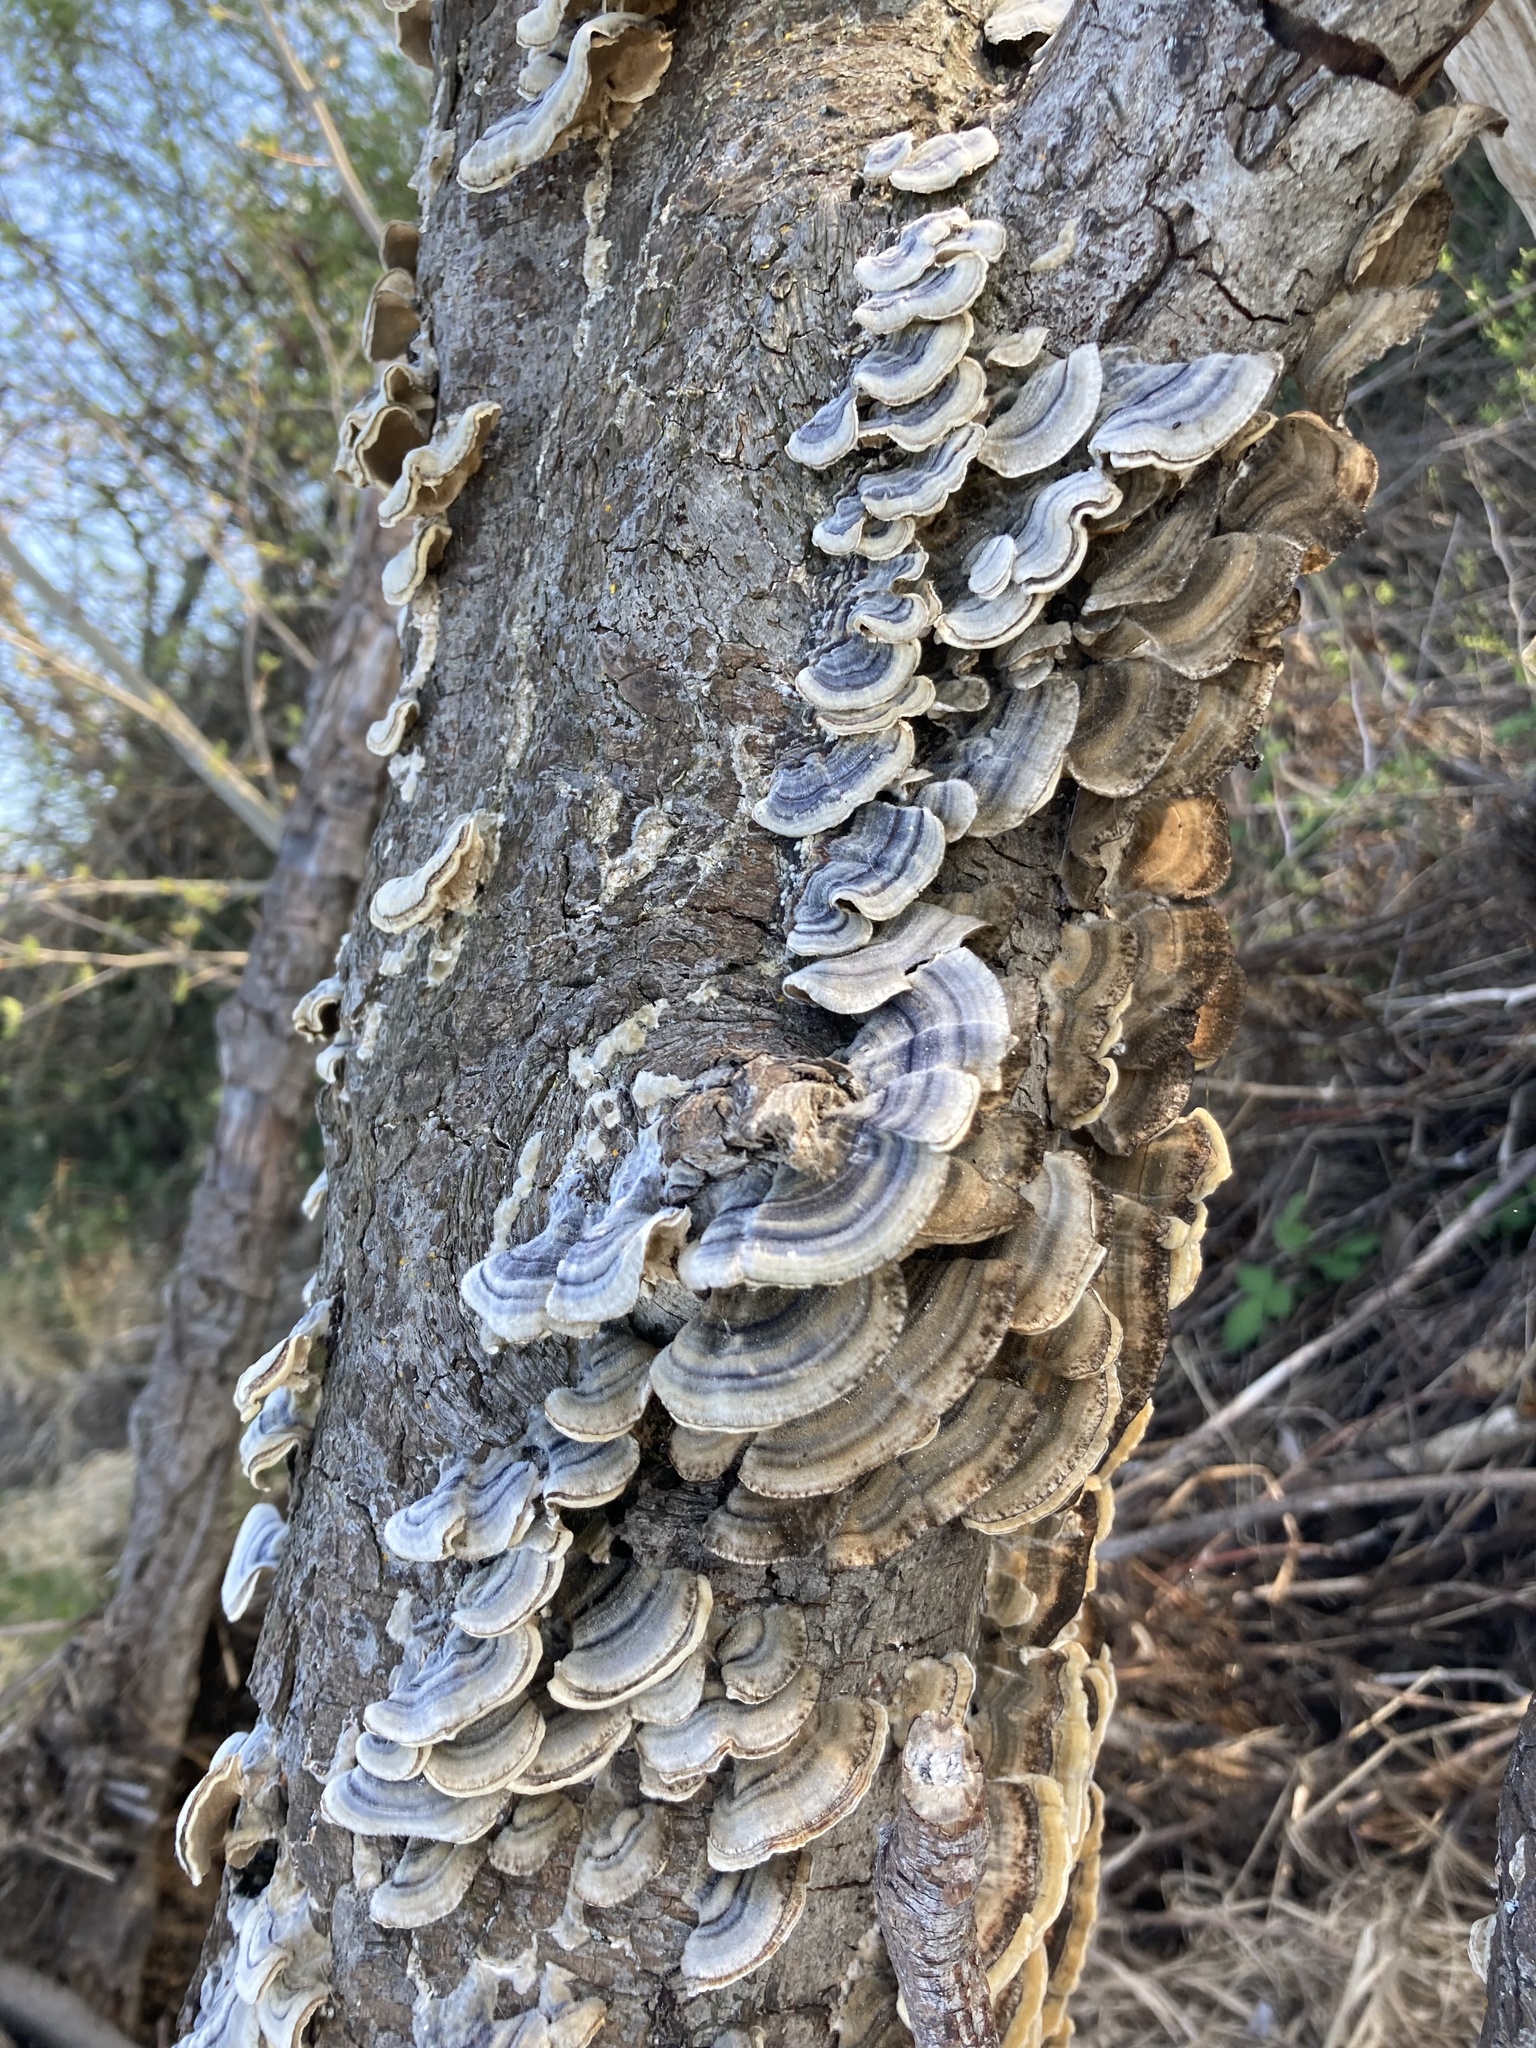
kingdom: Fungi
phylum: Basidiomycota
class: Agaricomycetes
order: Polyporales
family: Polyporaceae
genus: Trametes
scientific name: Trametes versicolor
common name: Turkeytail
